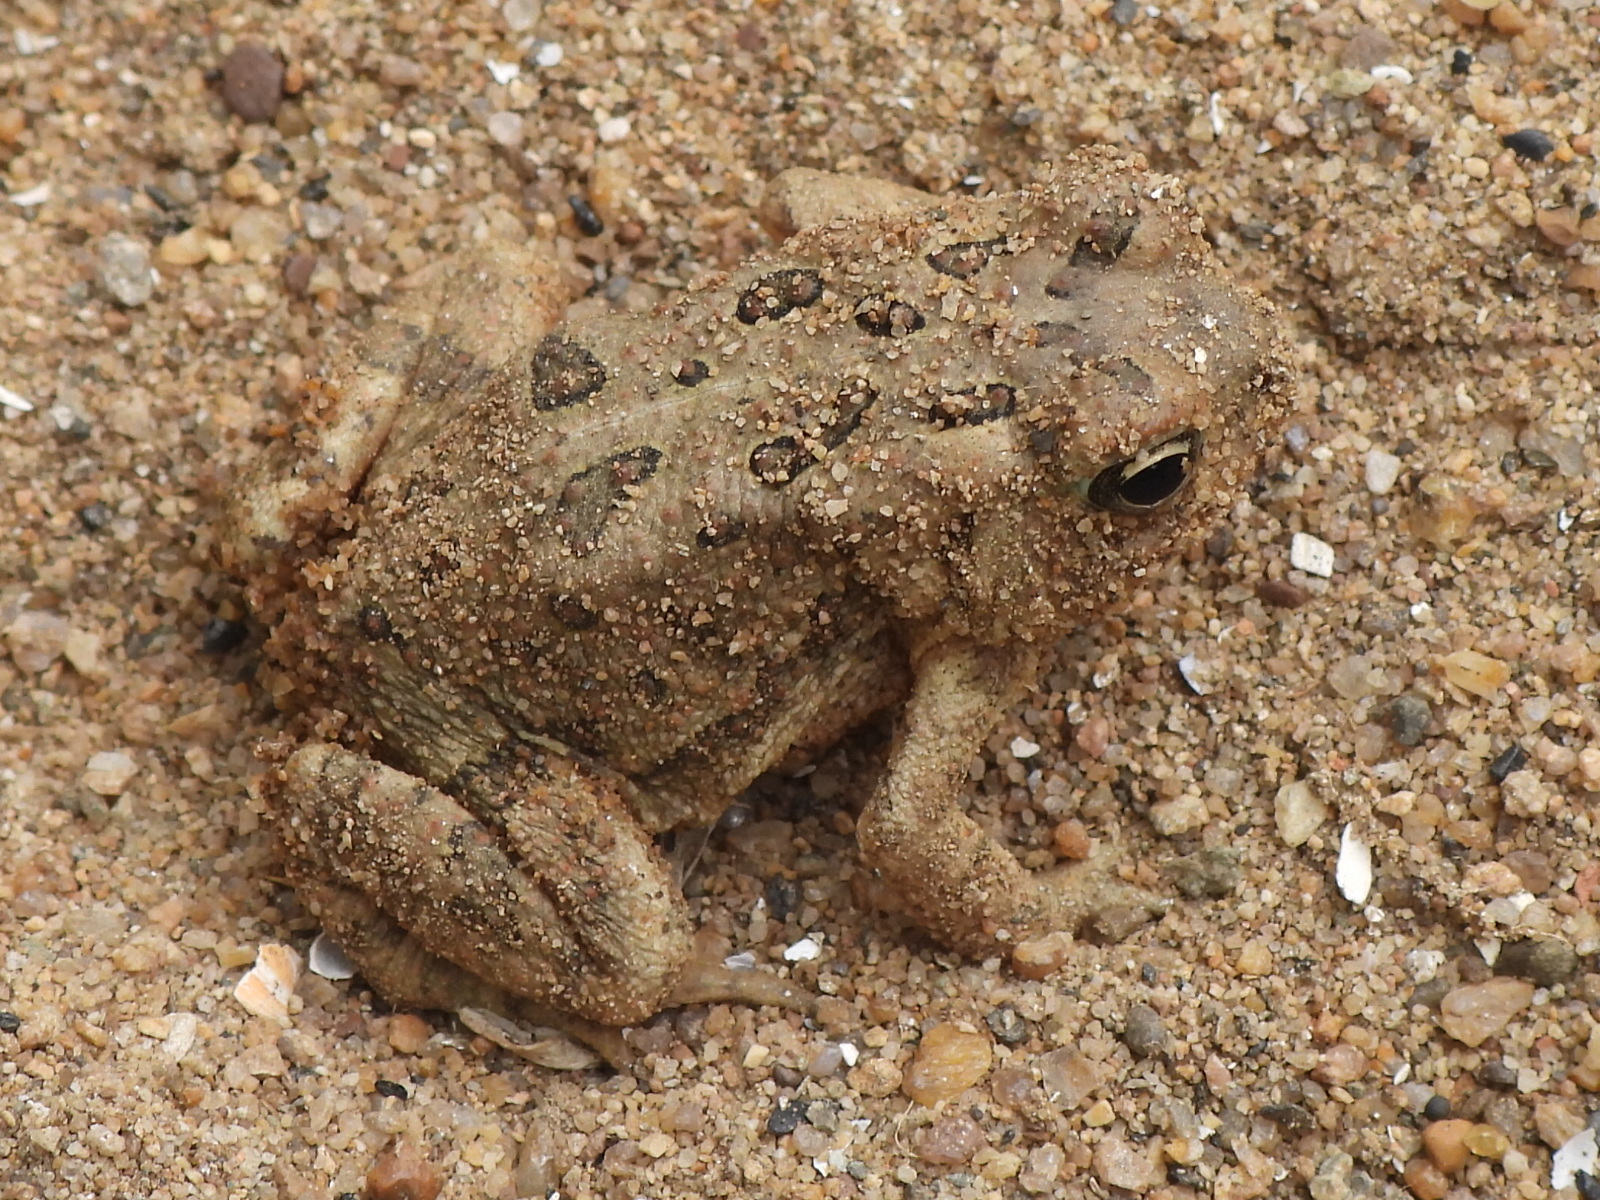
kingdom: Animalia
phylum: Chordata
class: Amphibia
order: Anura
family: Bufonidae
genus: Anaxyrus
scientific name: Anaxyrus fowleri
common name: Fowler's toad
